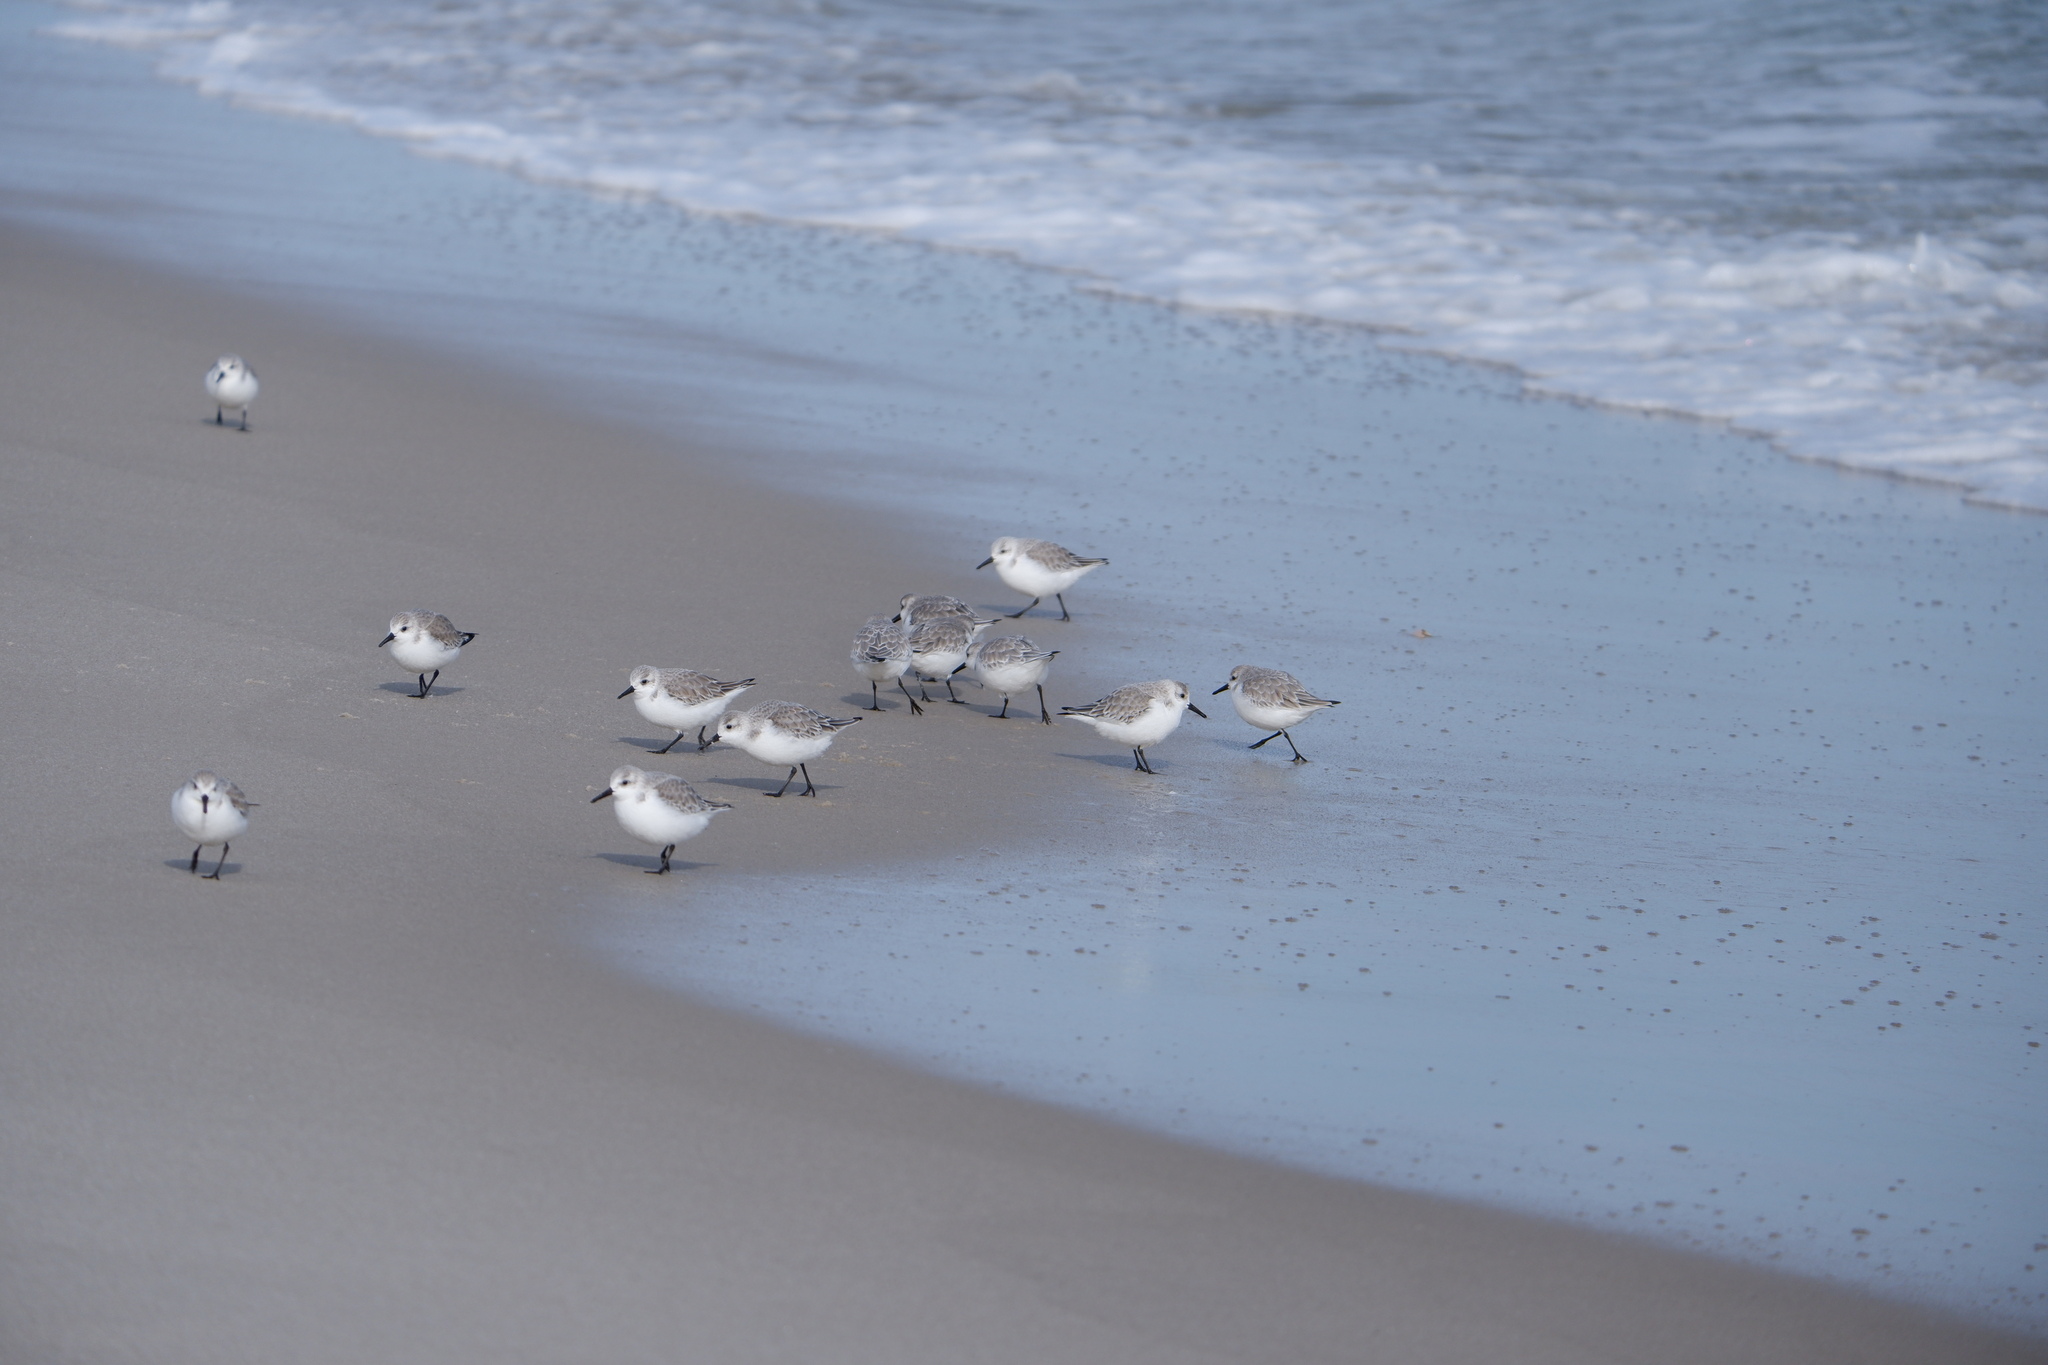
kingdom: Animalia
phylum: Chordata
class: Aves
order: Charadriiformes
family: Scolopacidae
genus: Calidris
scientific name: Calidris alba
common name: Sanderling
